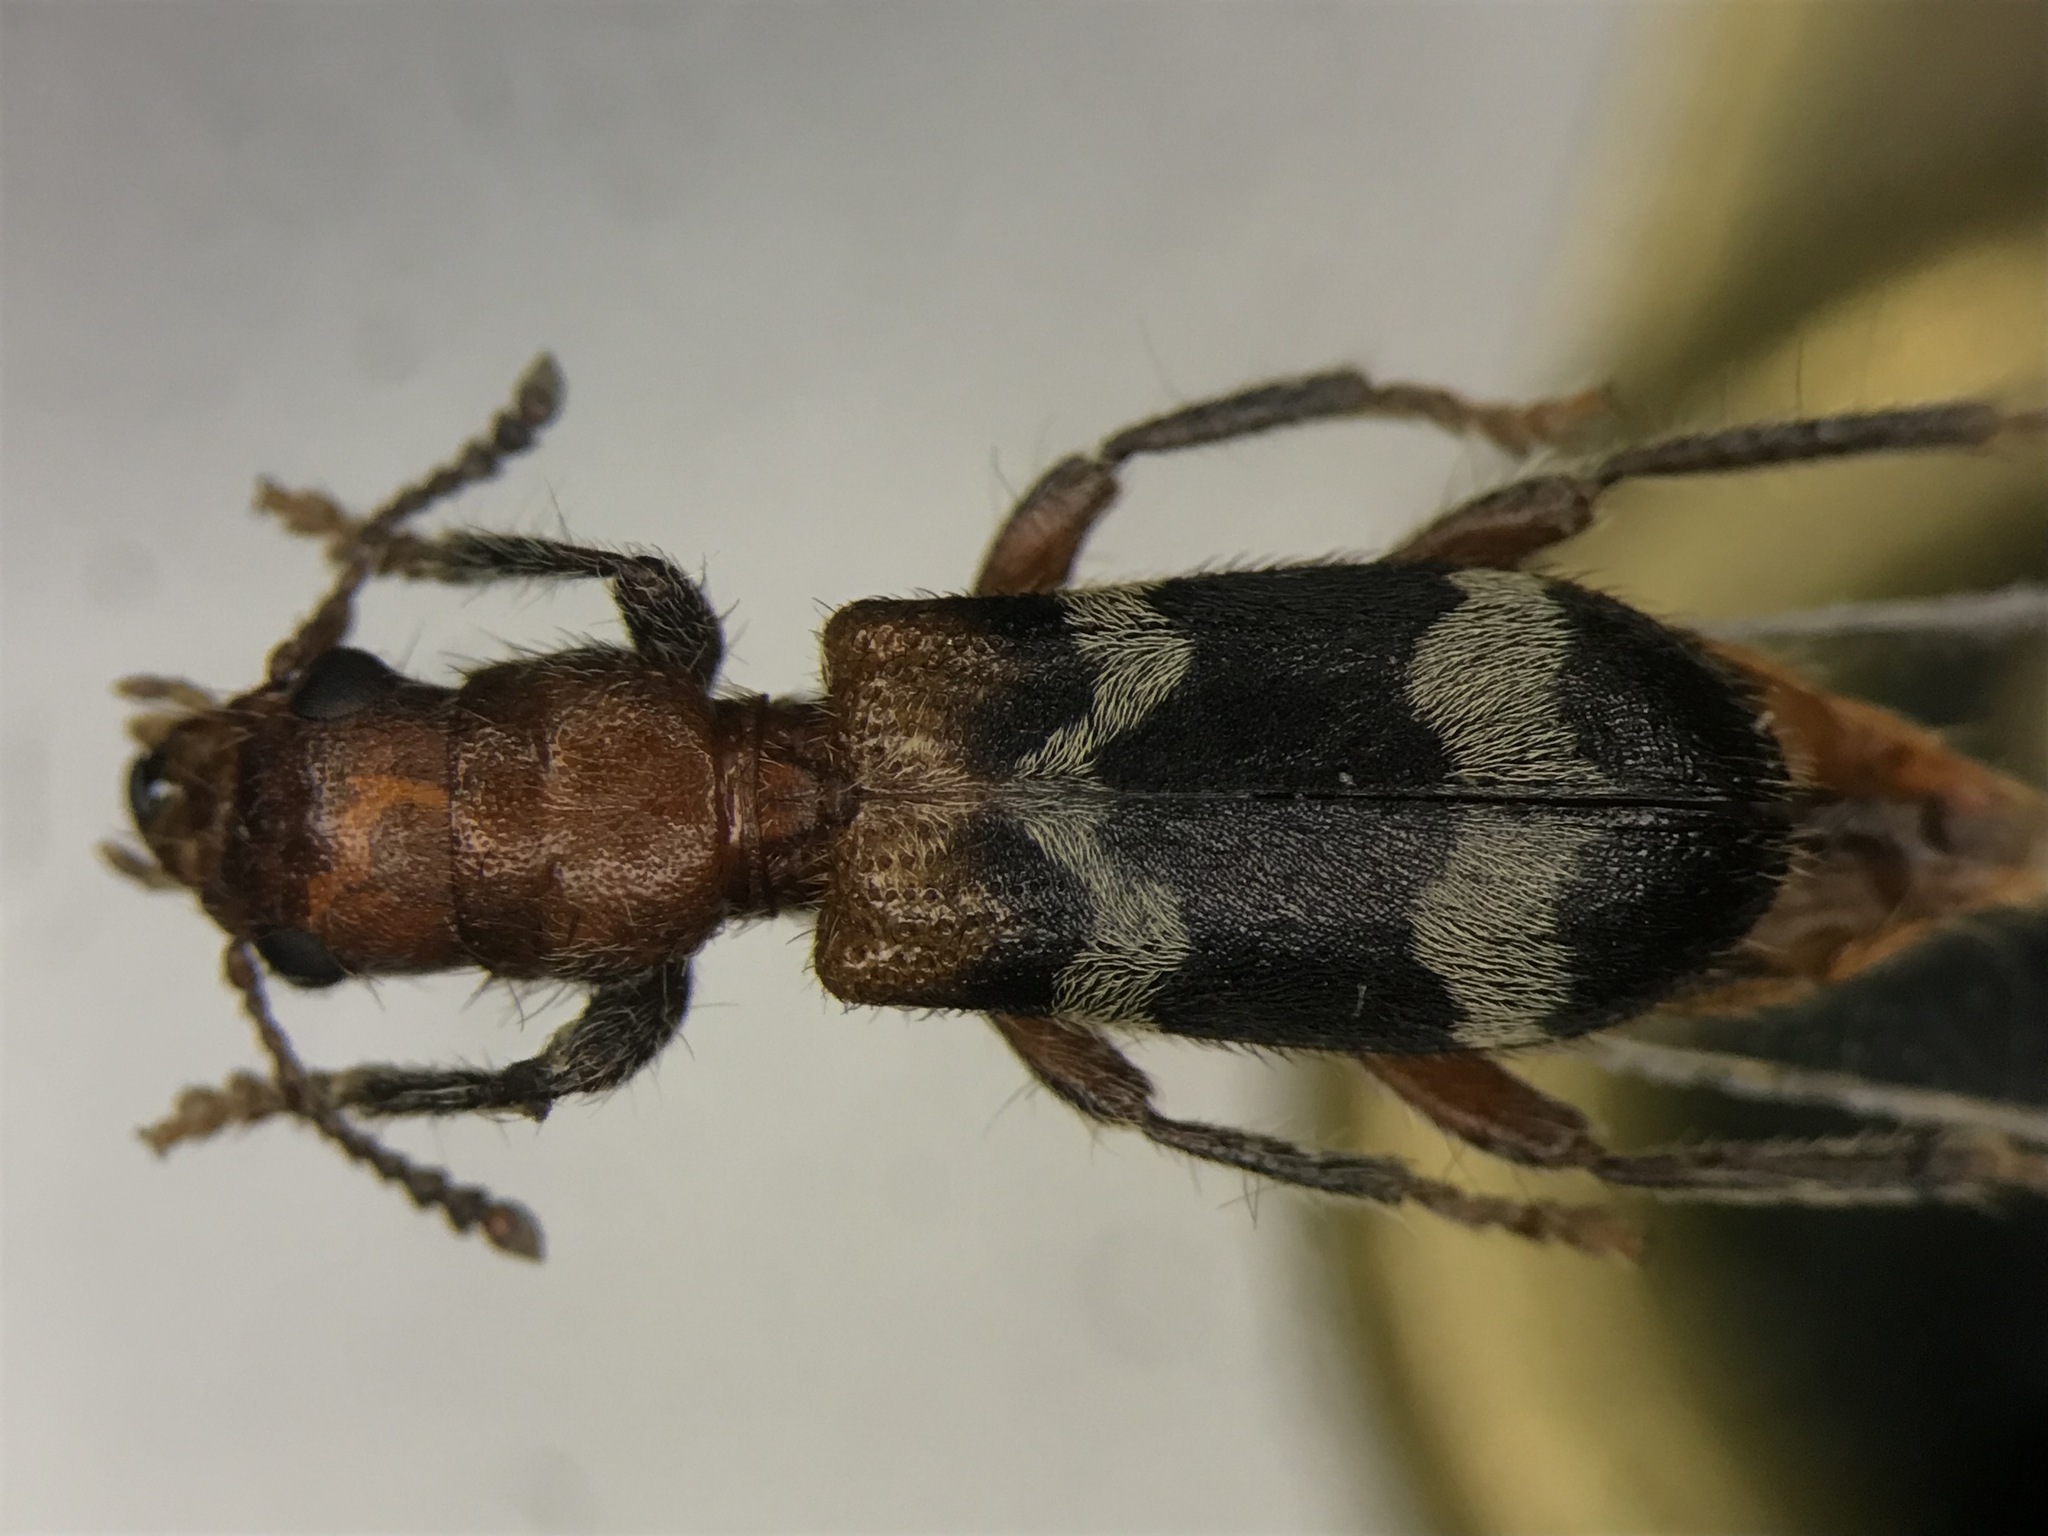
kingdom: Animalia
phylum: Arthropoda
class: Insecta
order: Coleoptera
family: Cleridae
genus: Thanasimus
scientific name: Thanasimus dubius
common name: Wavering checkered beetle
